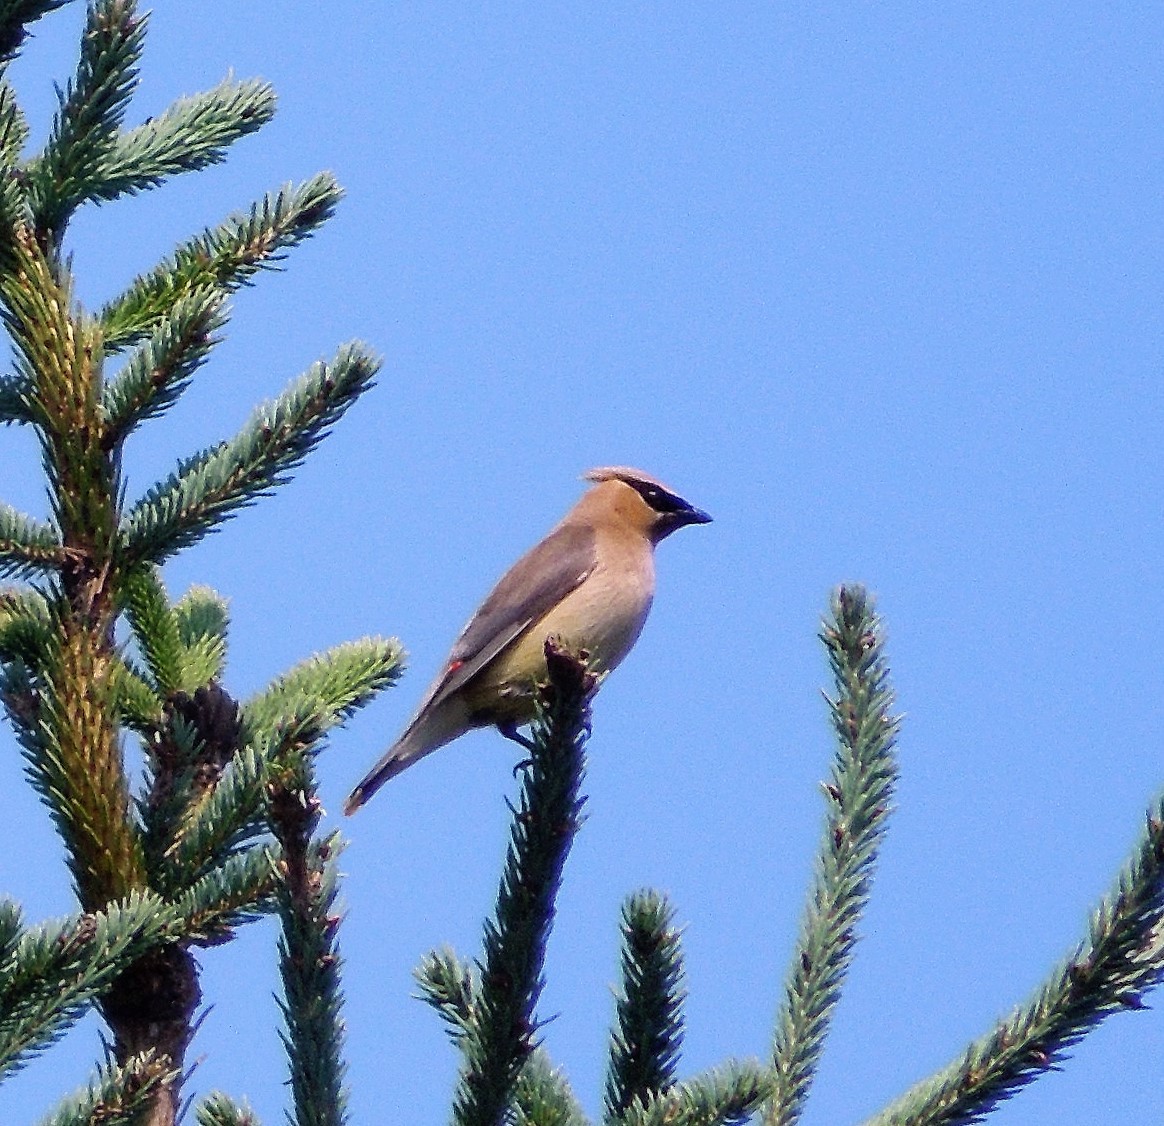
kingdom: Animalia
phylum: Chordata
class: Aves
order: Passeriformes
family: Bombycillidae
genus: Bombycilla
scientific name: Bombycilla cedrorum
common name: Cedar waxwing
